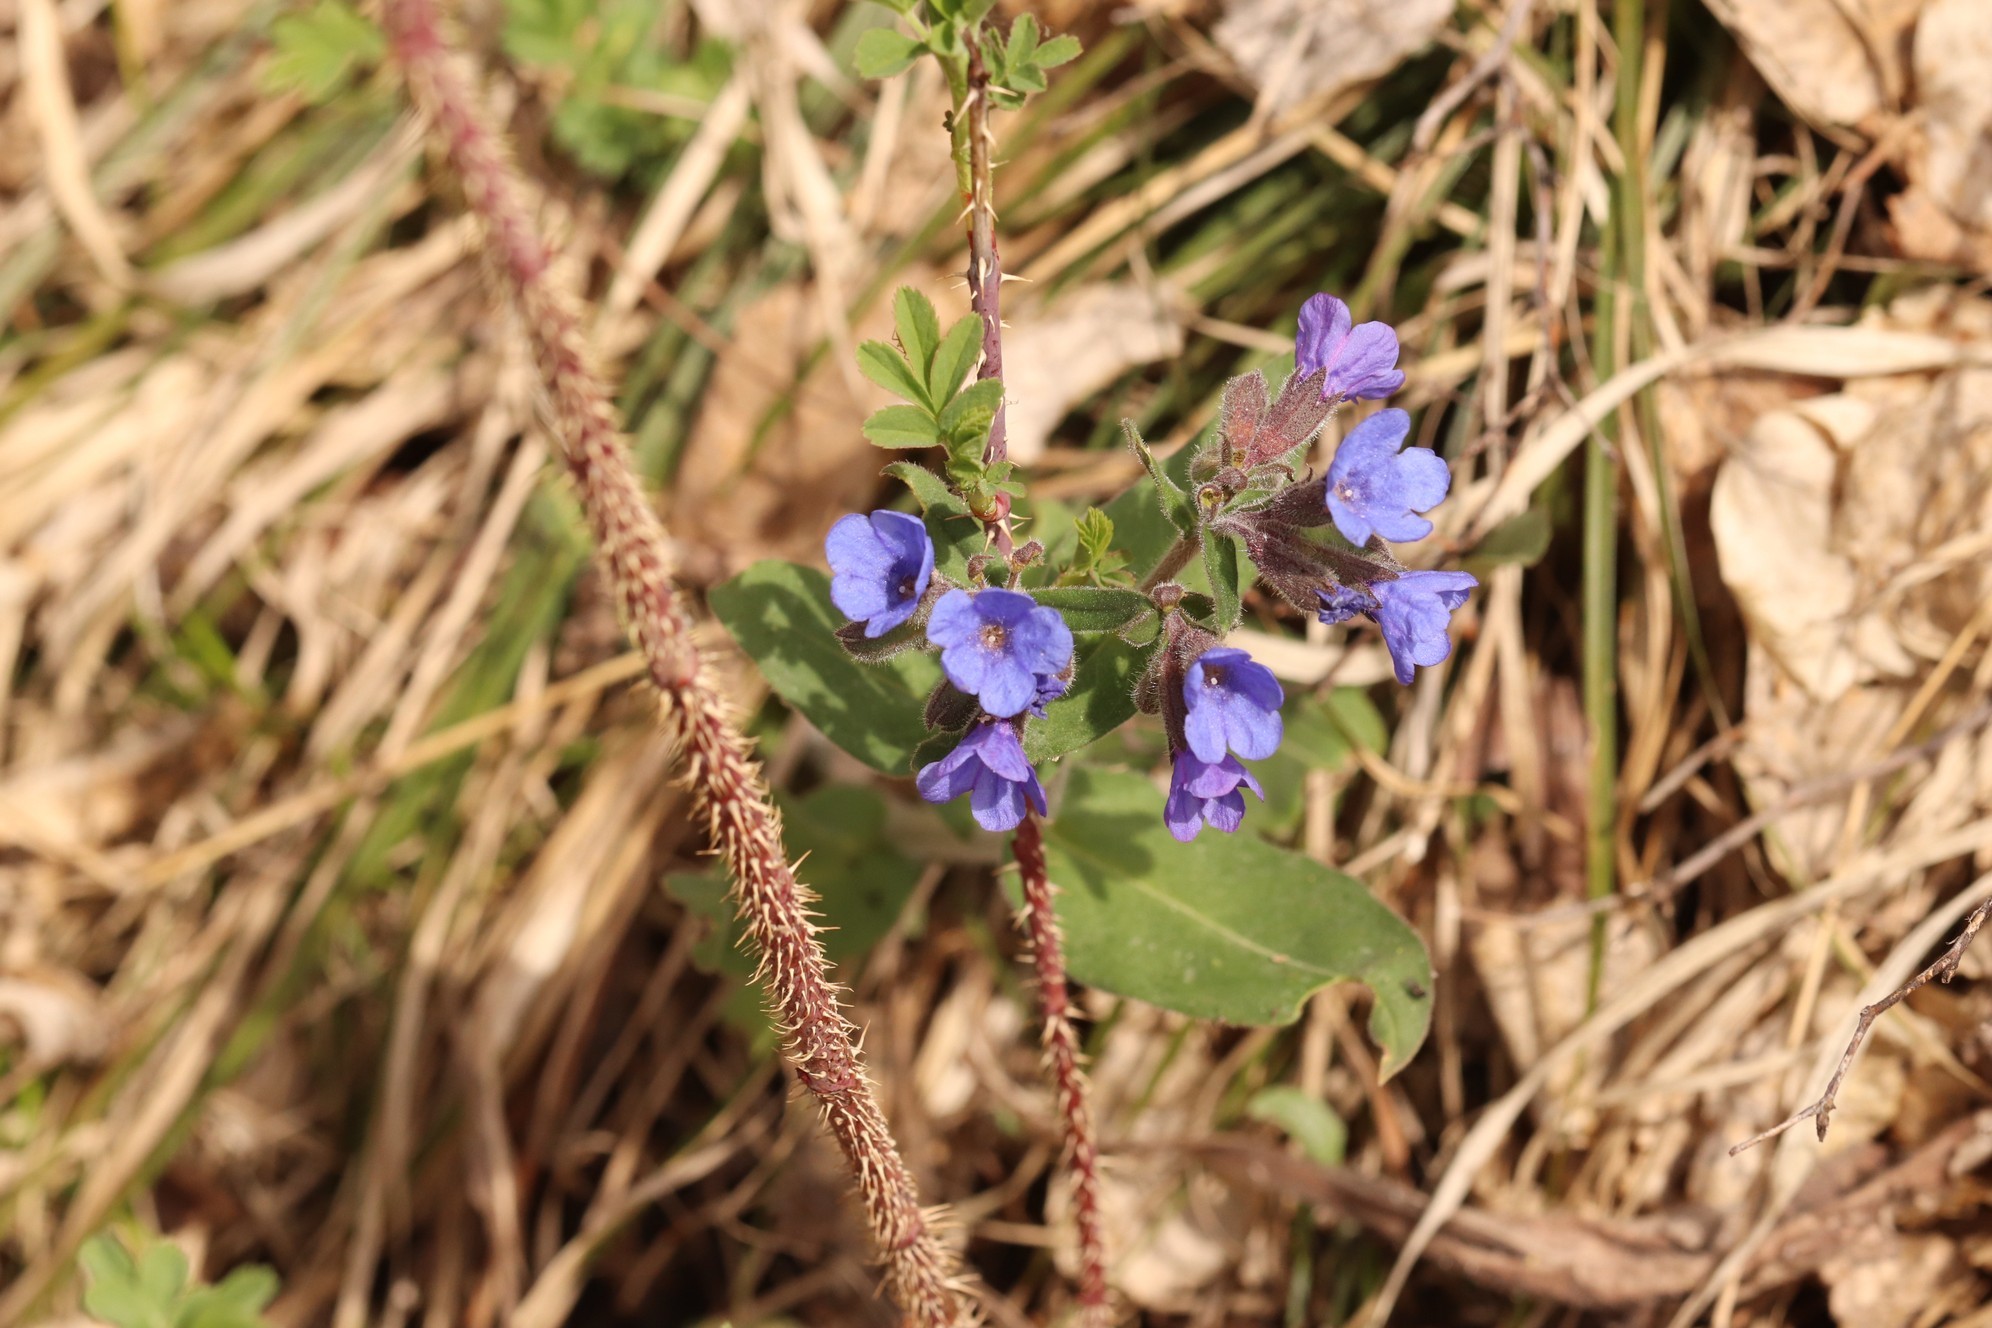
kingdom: Plantae
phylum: Tracheophyta
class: Magnoliopsida
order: Boraginales
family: Boraginaceae
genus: Pulmonaria
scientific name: Pulmonaria mollis
